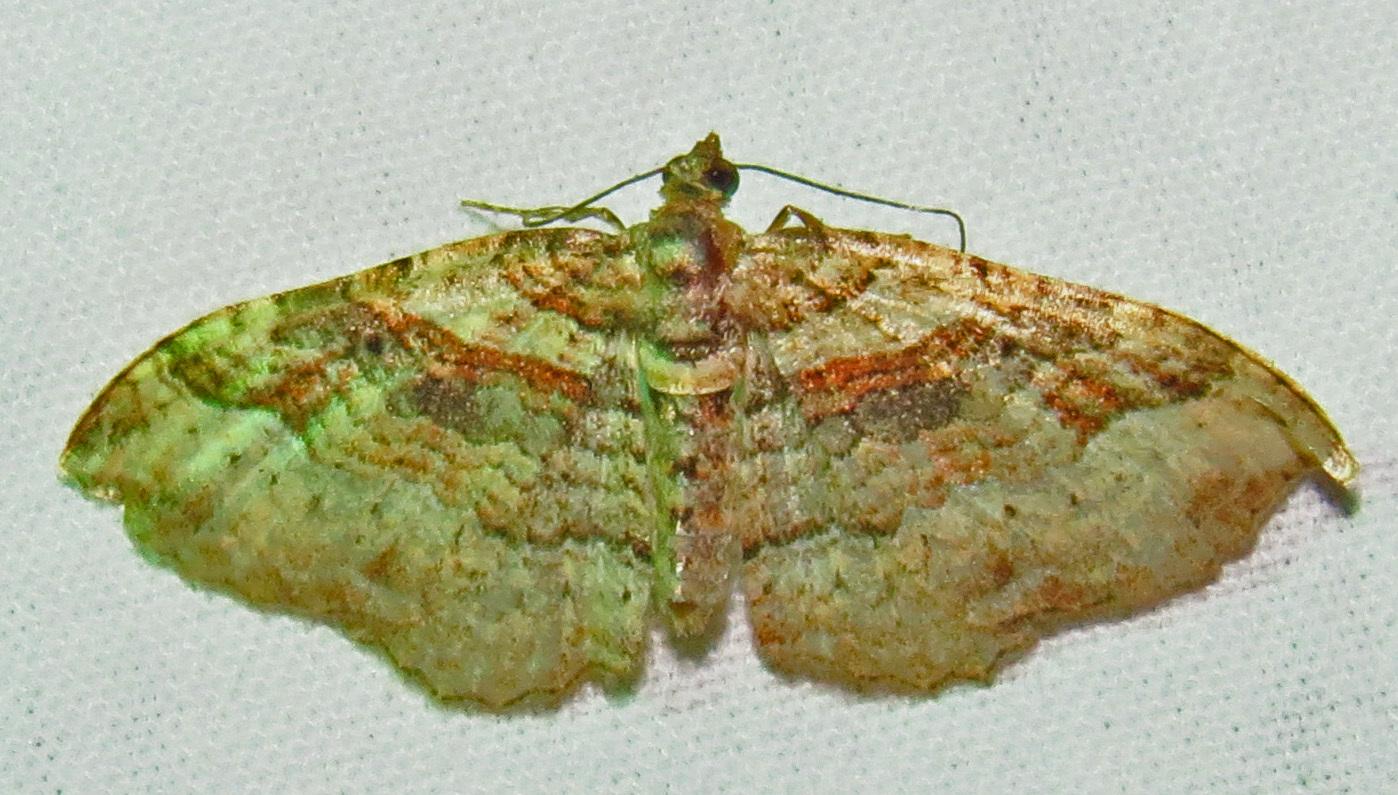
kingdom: Animalia
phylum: Arthropoda
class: Insecta
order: Lepidoptera
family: Geometridae
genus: Costaconvexa
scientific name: Costaconvexa centrostrigaria
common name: Bent-line carpet
